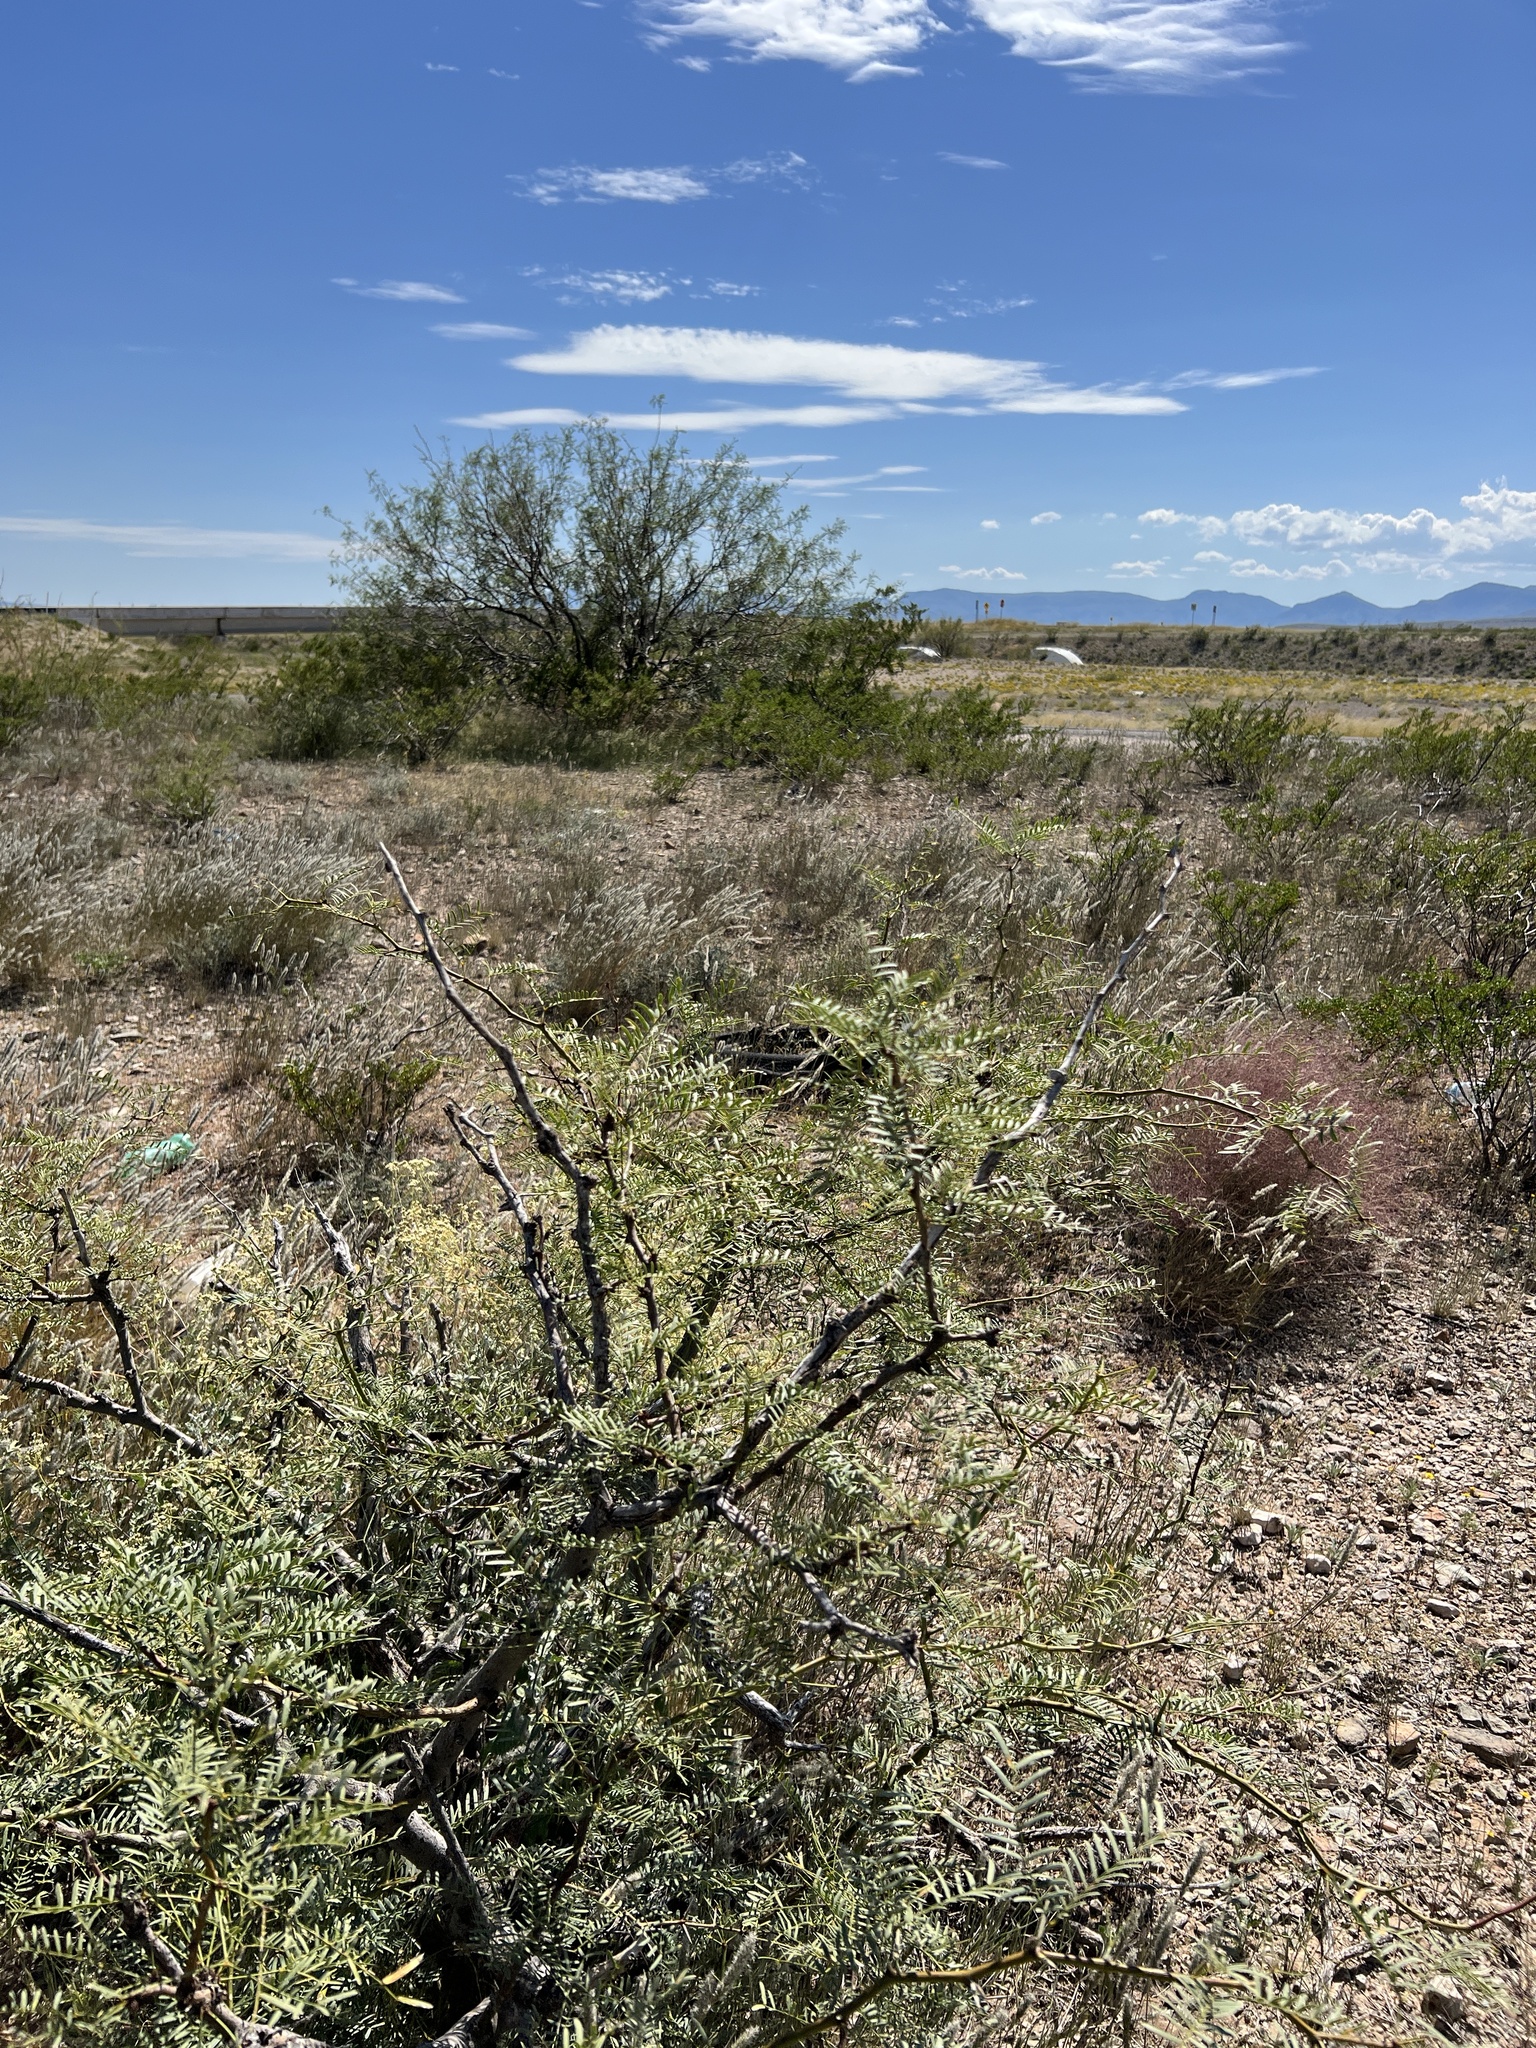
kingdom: Plantae
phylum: Tracheophyta
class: Magnoliopsida
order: Fabales
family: Fabaceae
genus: Prosopis
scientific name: Prosopis glandulosa
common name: Honey mesquite
